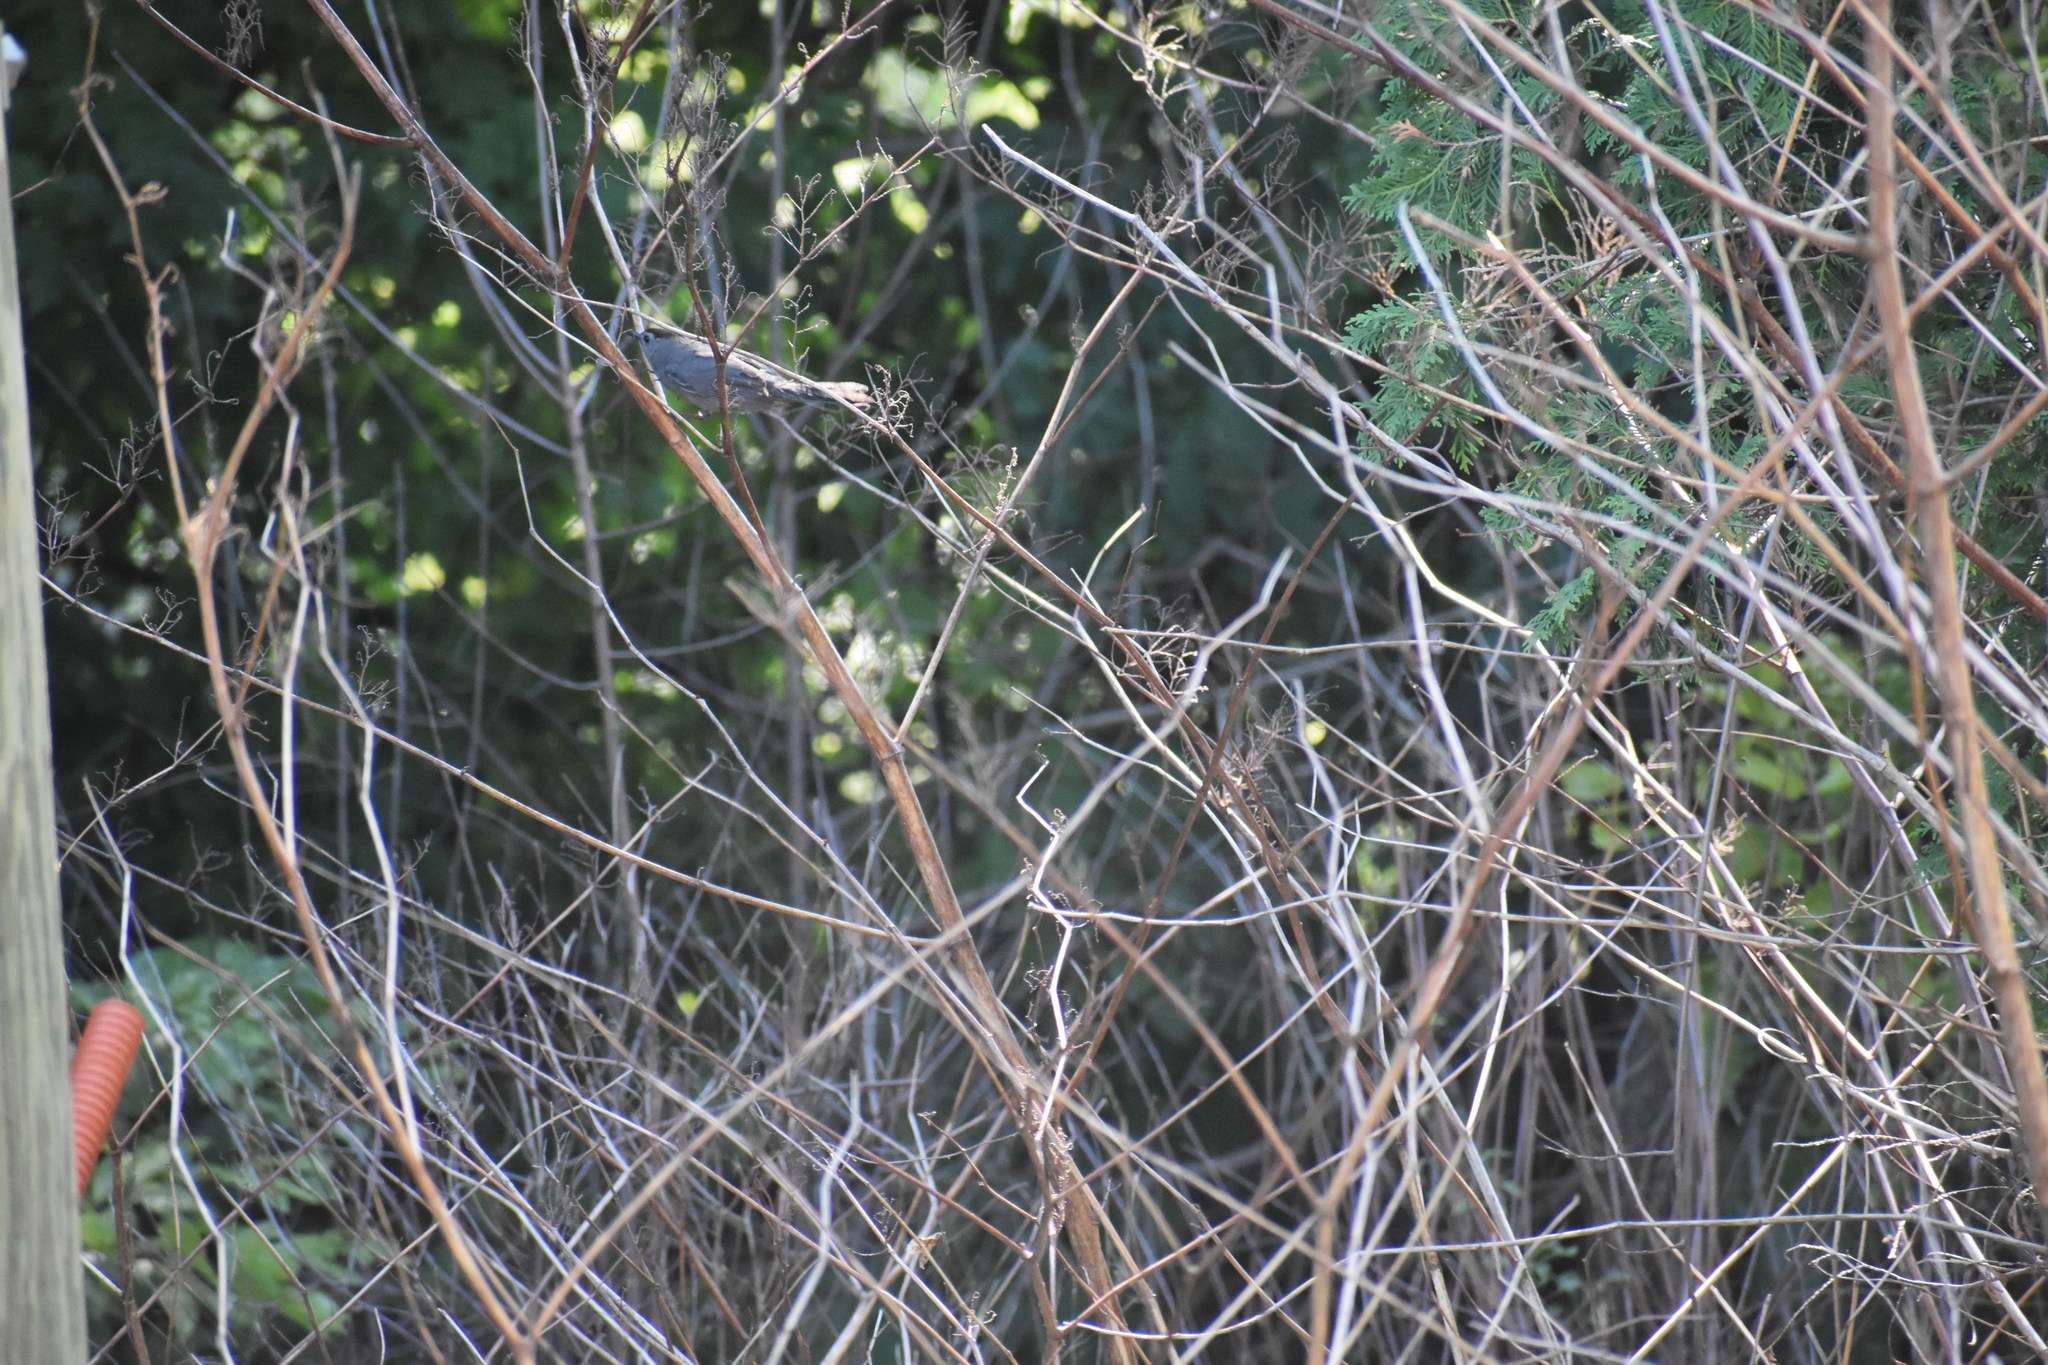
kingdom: Animalia
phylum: Chordata
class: Aves
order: Passeriformes
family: Mimidae
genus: Dumetella
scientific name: Dumetella carolinensis
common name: Gray catbird
